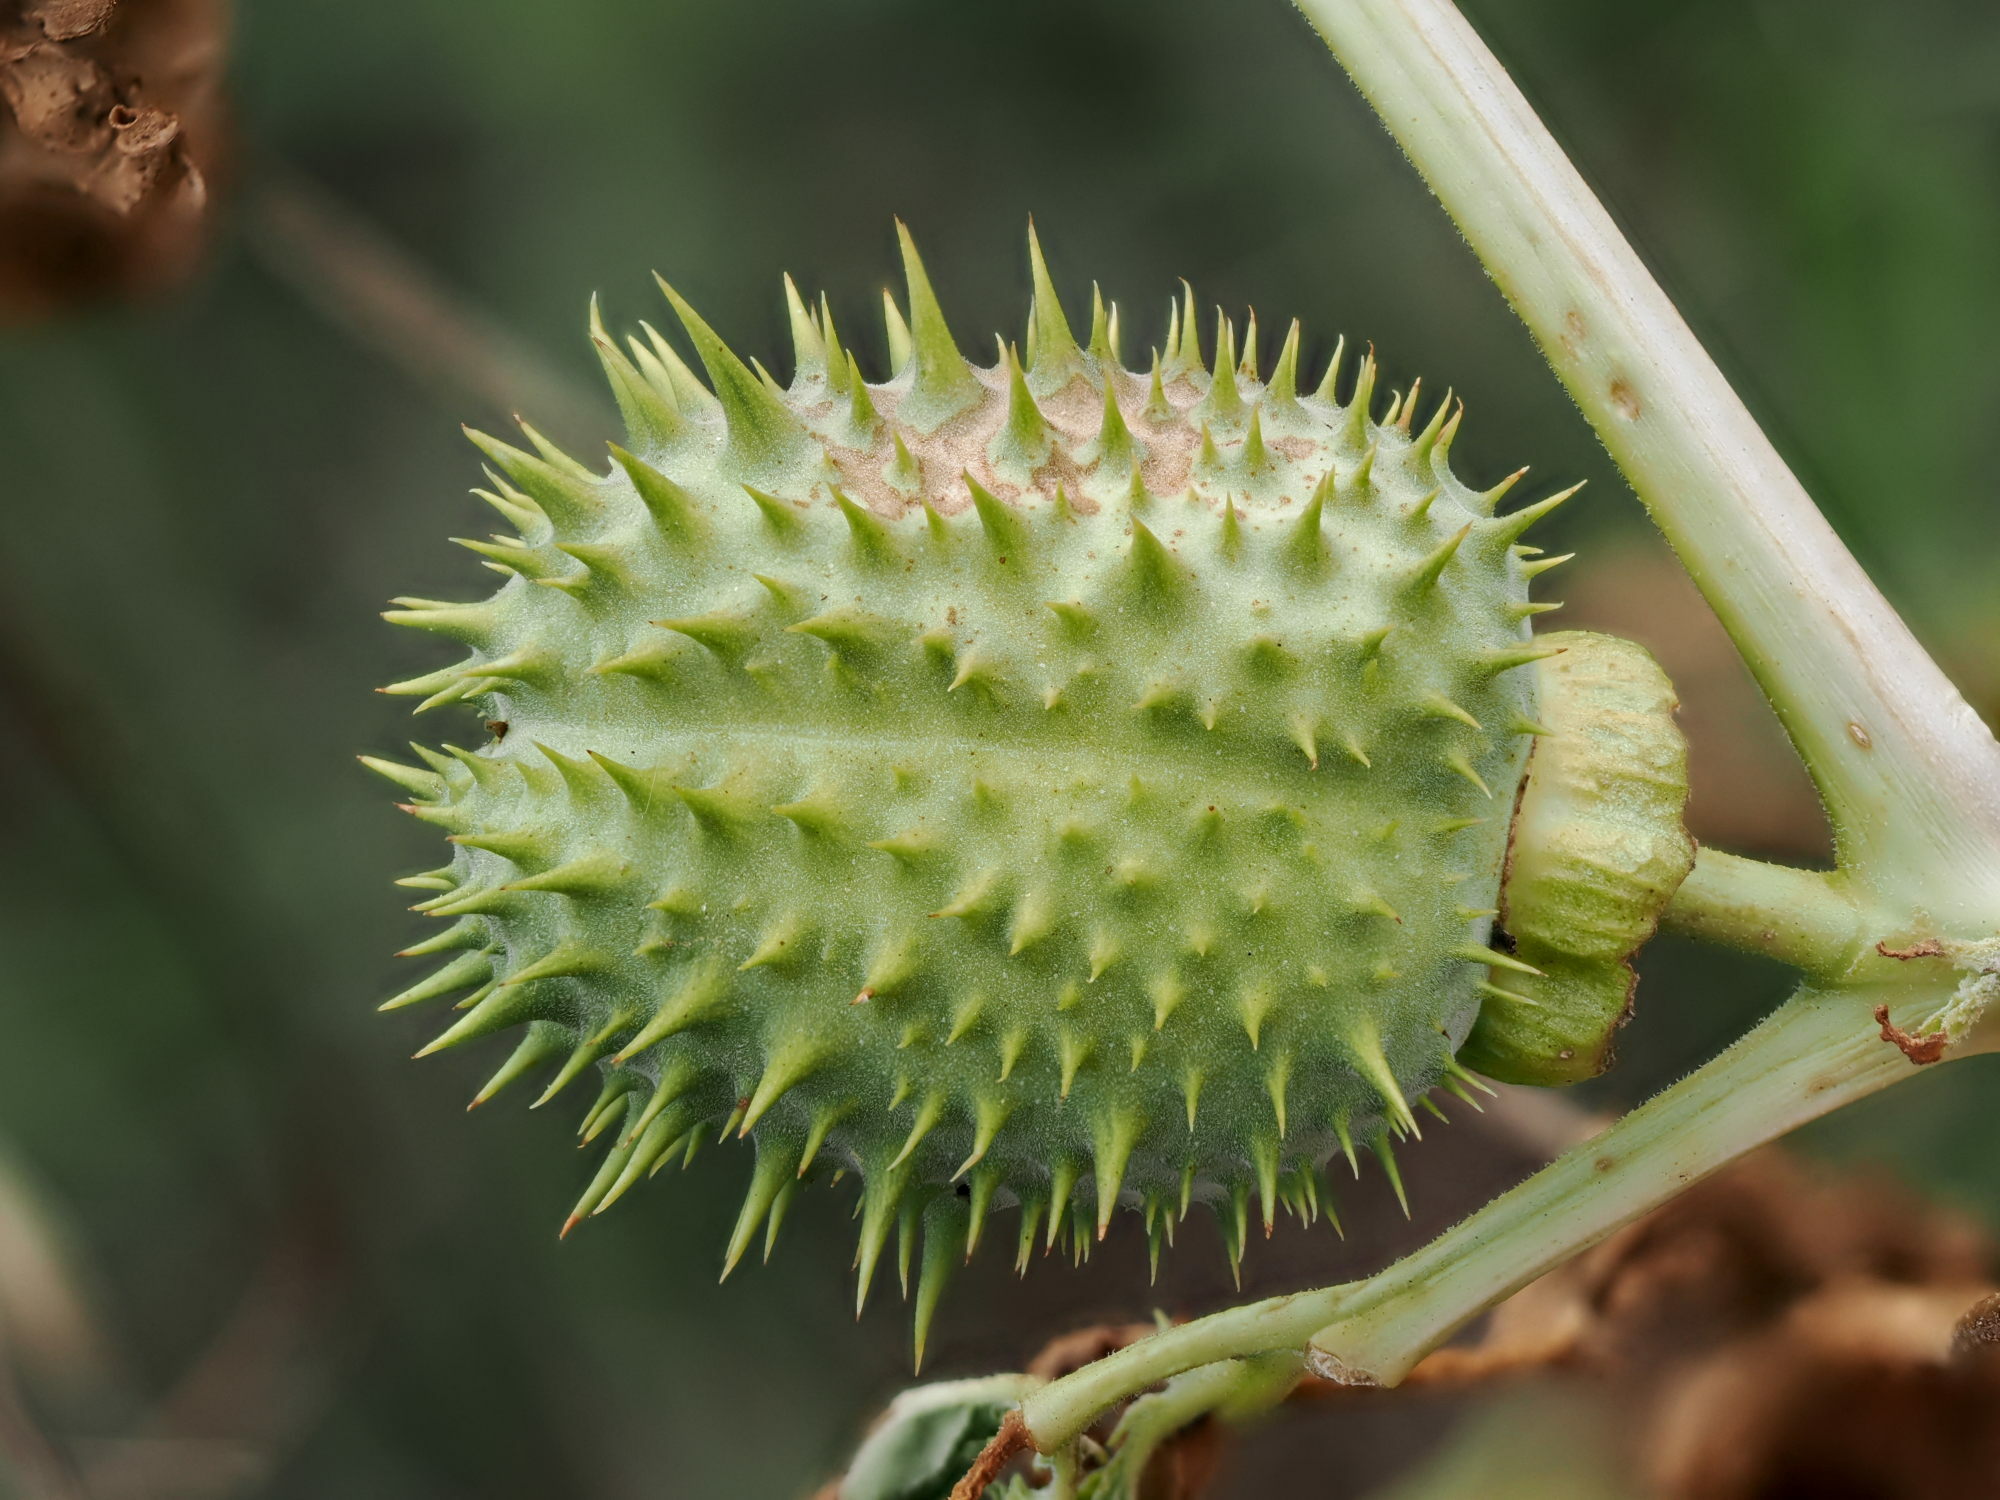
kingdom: Plantae
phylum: Tracheophyta
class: Magnoliopsida
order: Solanales
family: Solanaceae
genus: Datura
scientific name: Datura stramonium
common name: Thorn-apple
